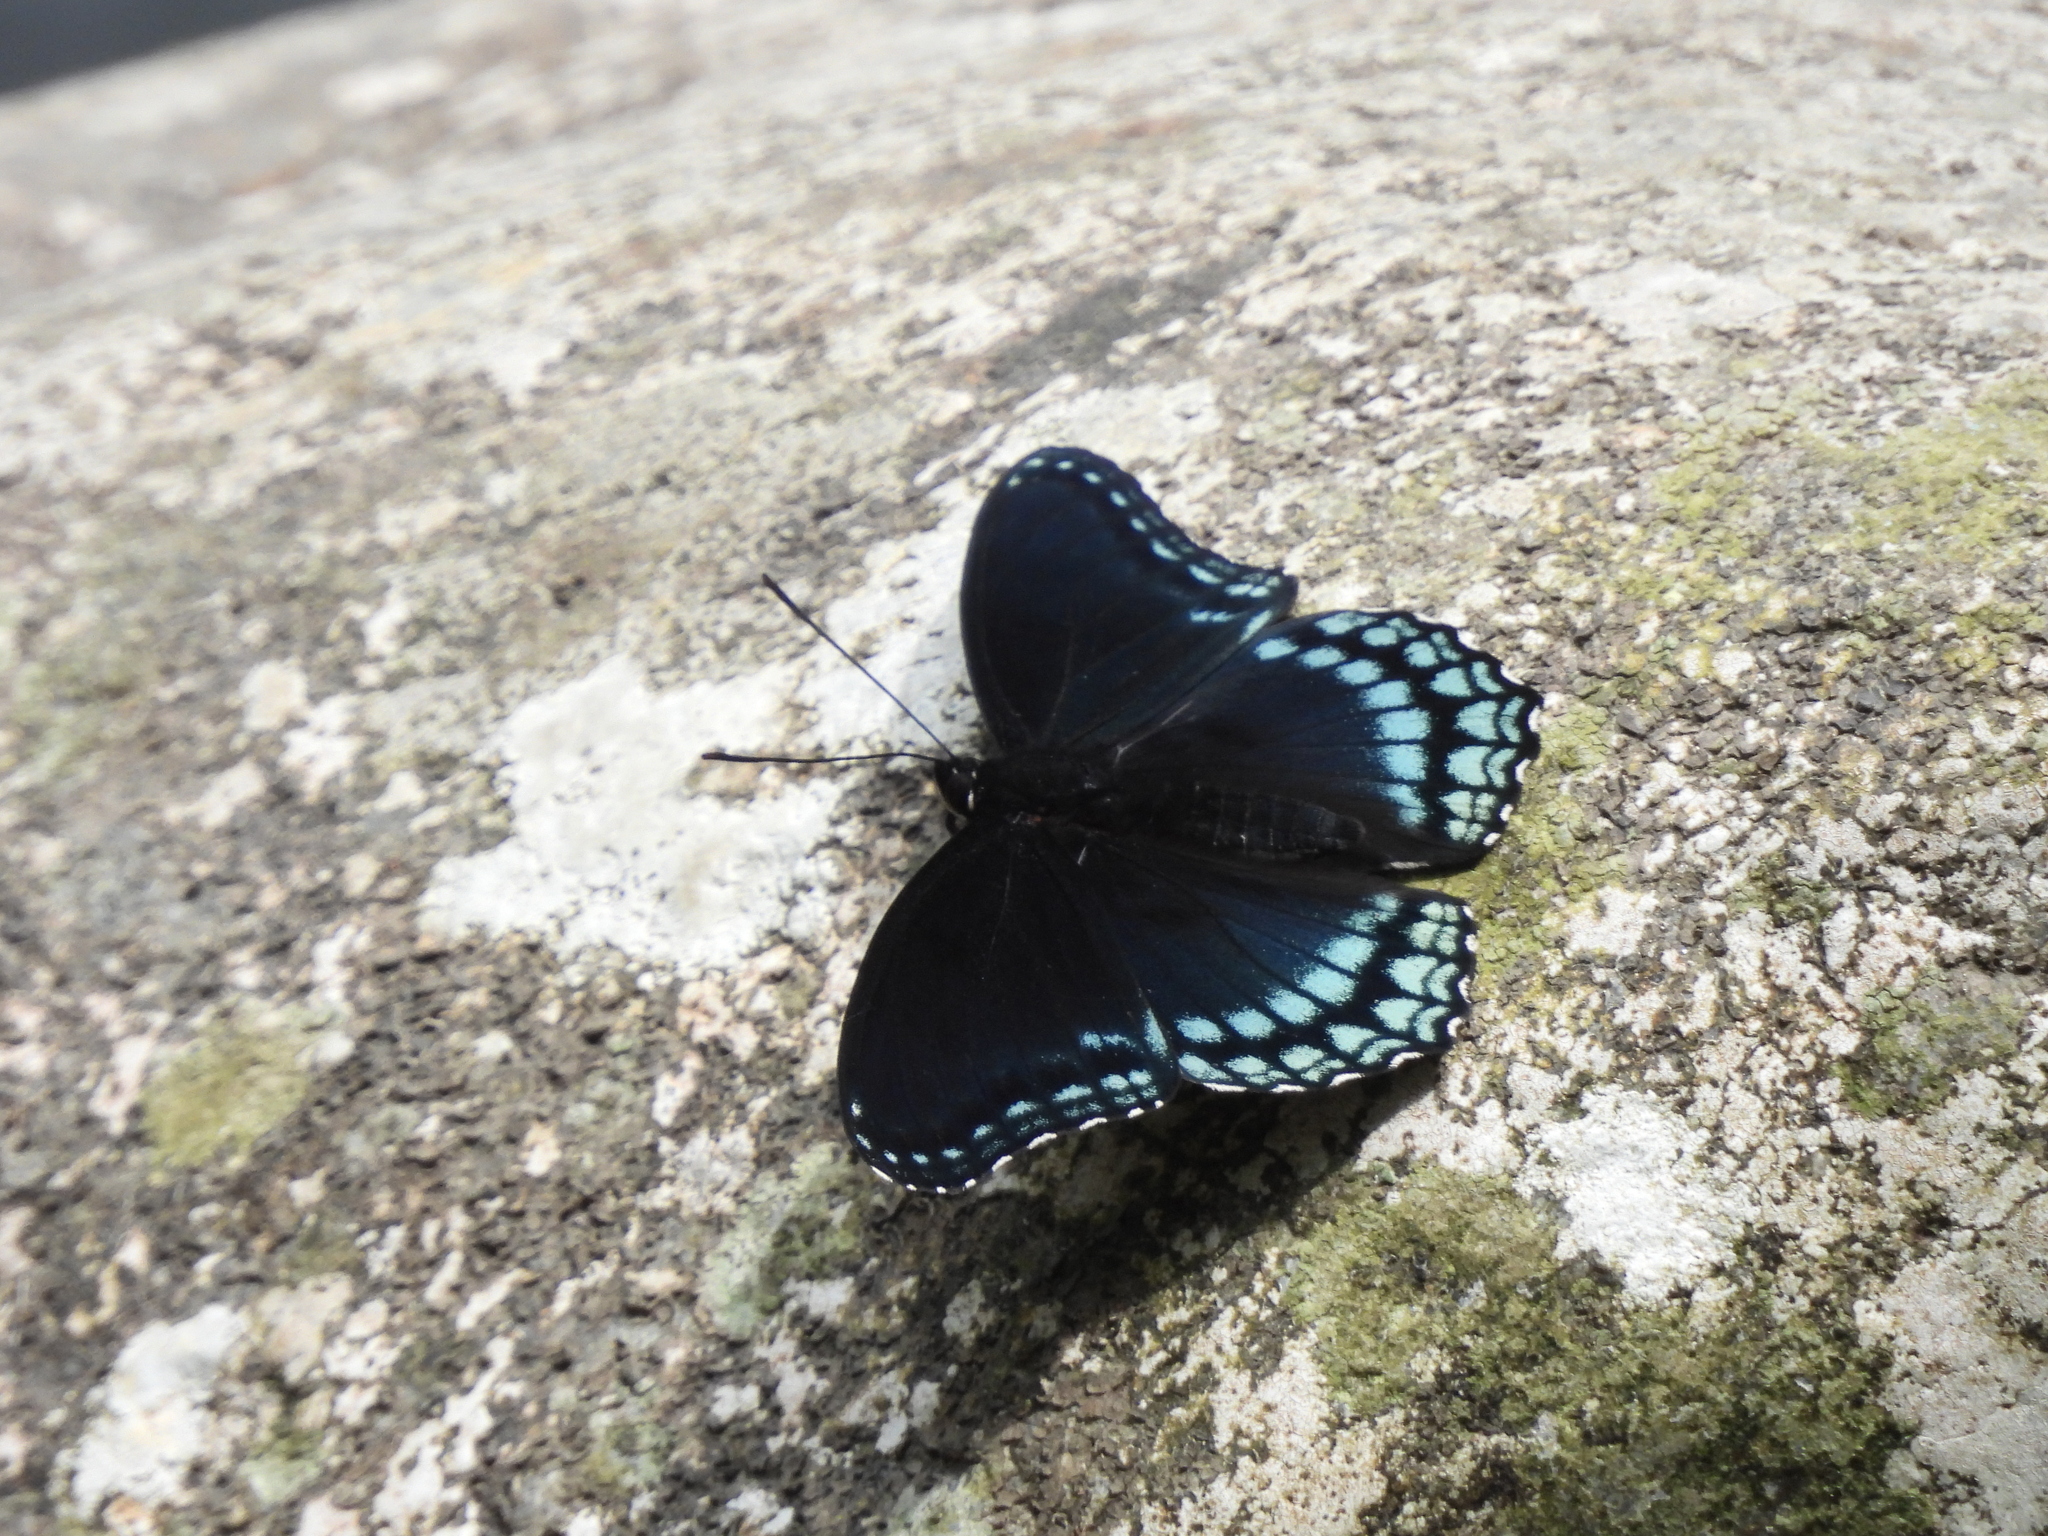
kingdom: Animalia
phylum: Arthropoda
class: Insecta
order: Lepidoptera
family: Nymphalidae
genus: Limenitis
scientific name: Limenitis arthemis
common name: Red-spotted admiral
